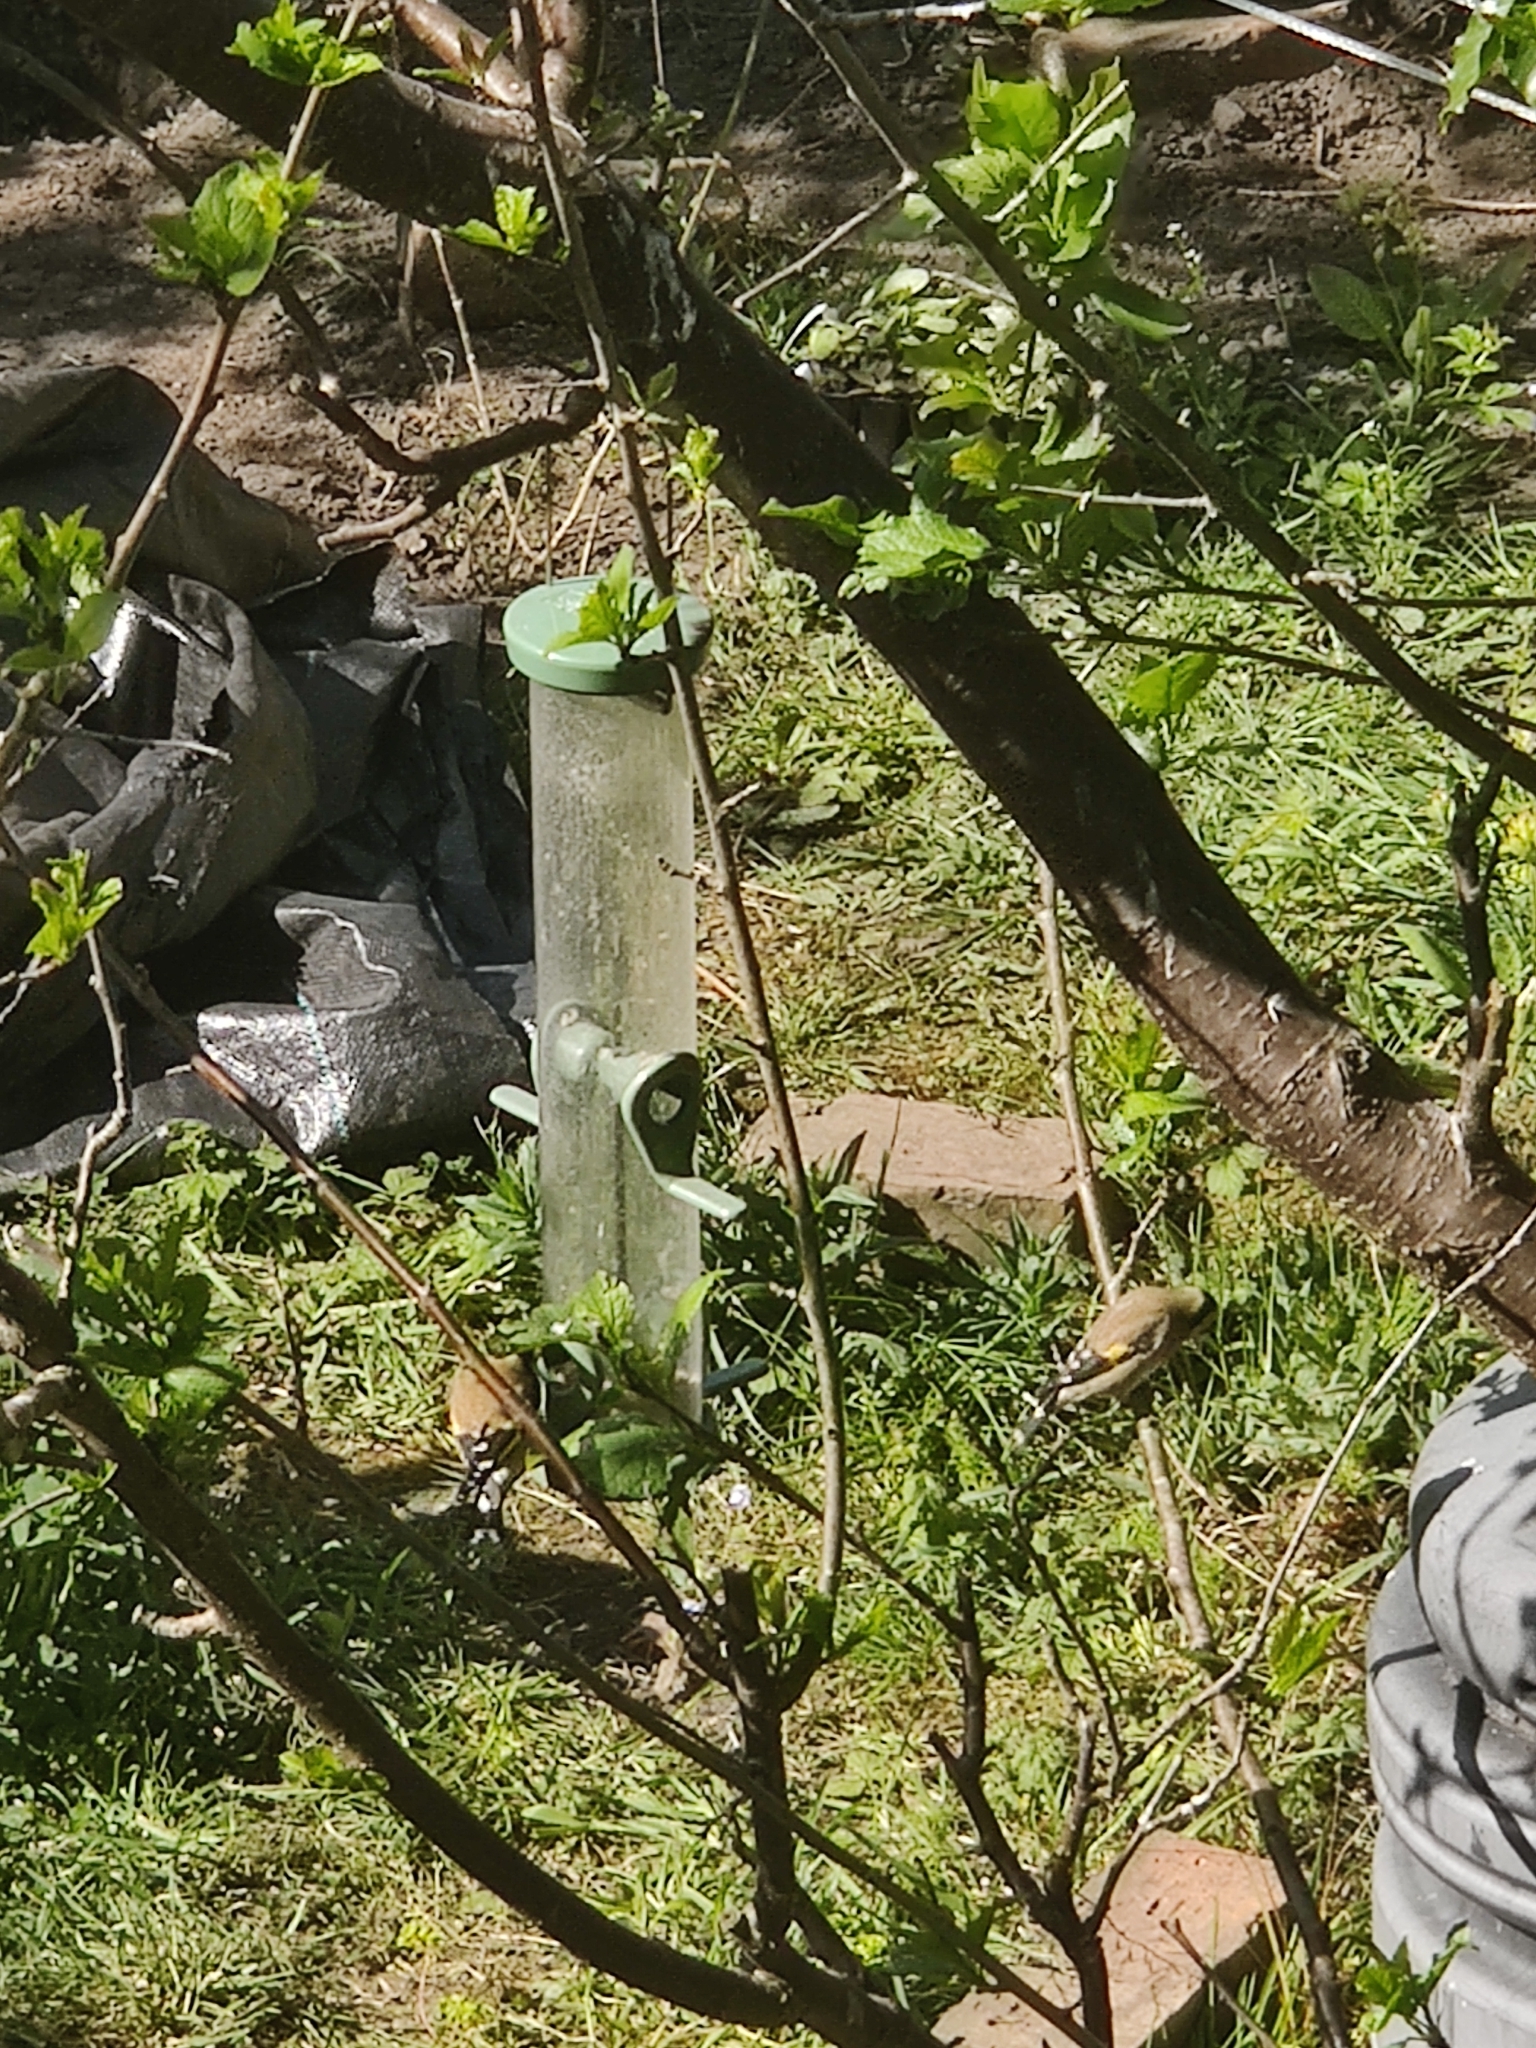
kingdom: Animalia
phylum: Chordata
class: Aves
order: Passeriformes
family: Fringillidae
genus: Carduelis
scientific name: Carduelis carduelis
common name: European goldfinch
